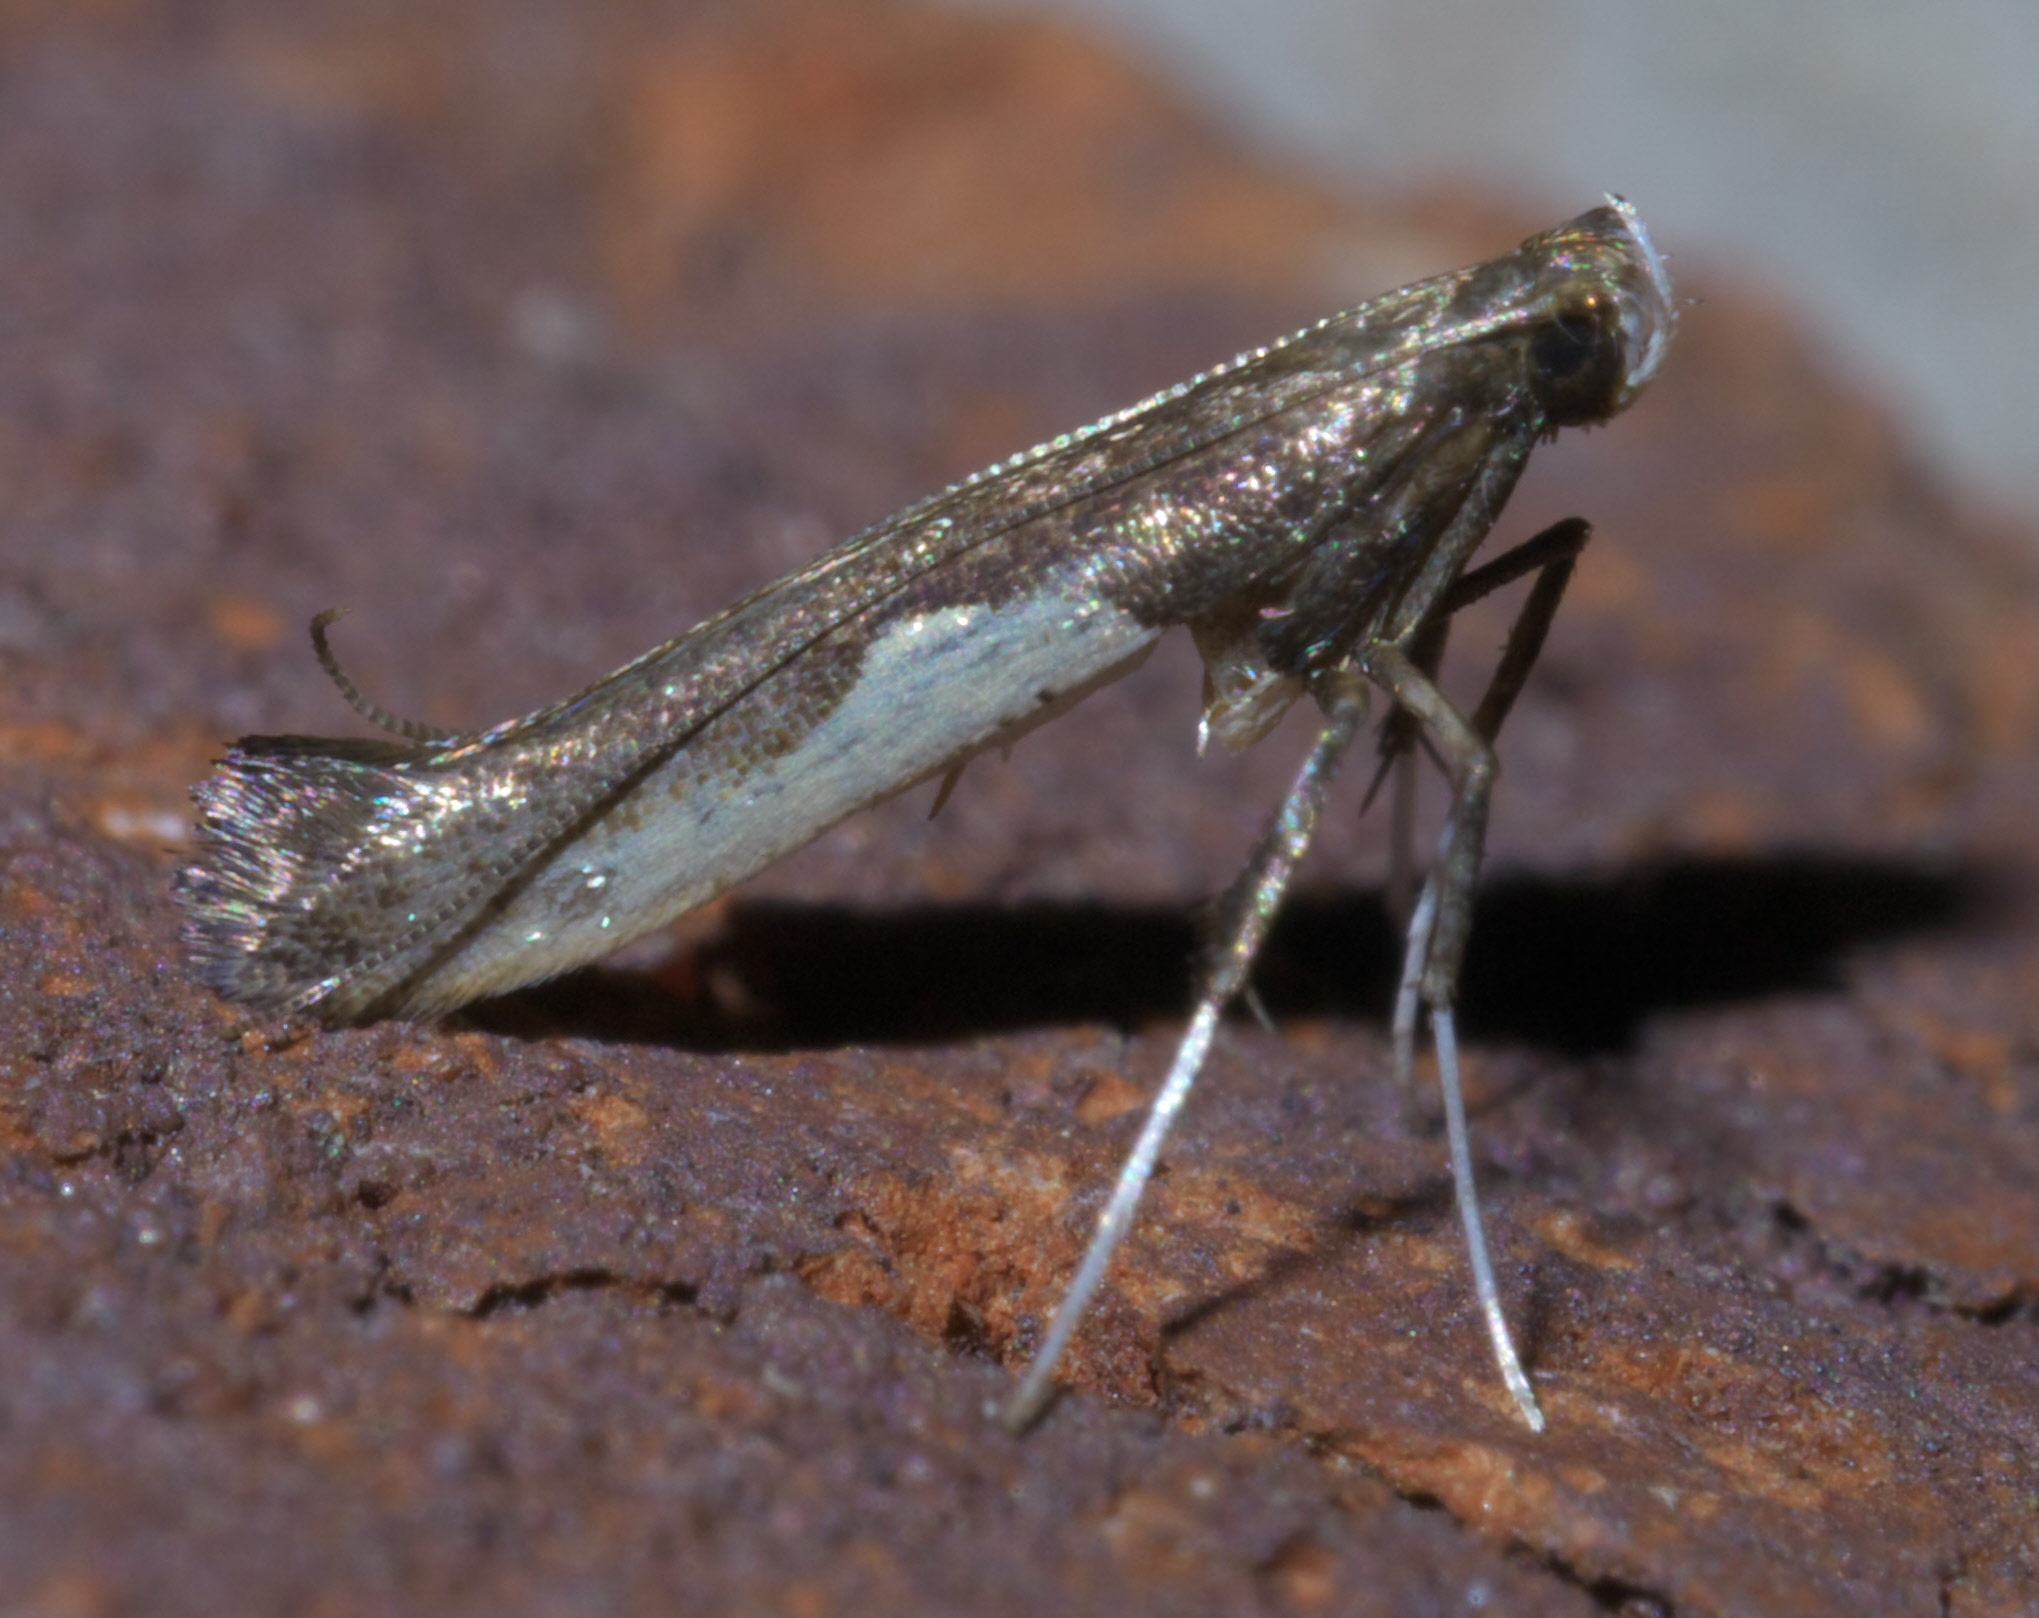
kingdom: Animalia
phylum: Arthropoda
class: Insecta
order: Lepidoptera
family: Gracillariidae
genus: Caloptilia
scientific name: Caloptilia belfragella
